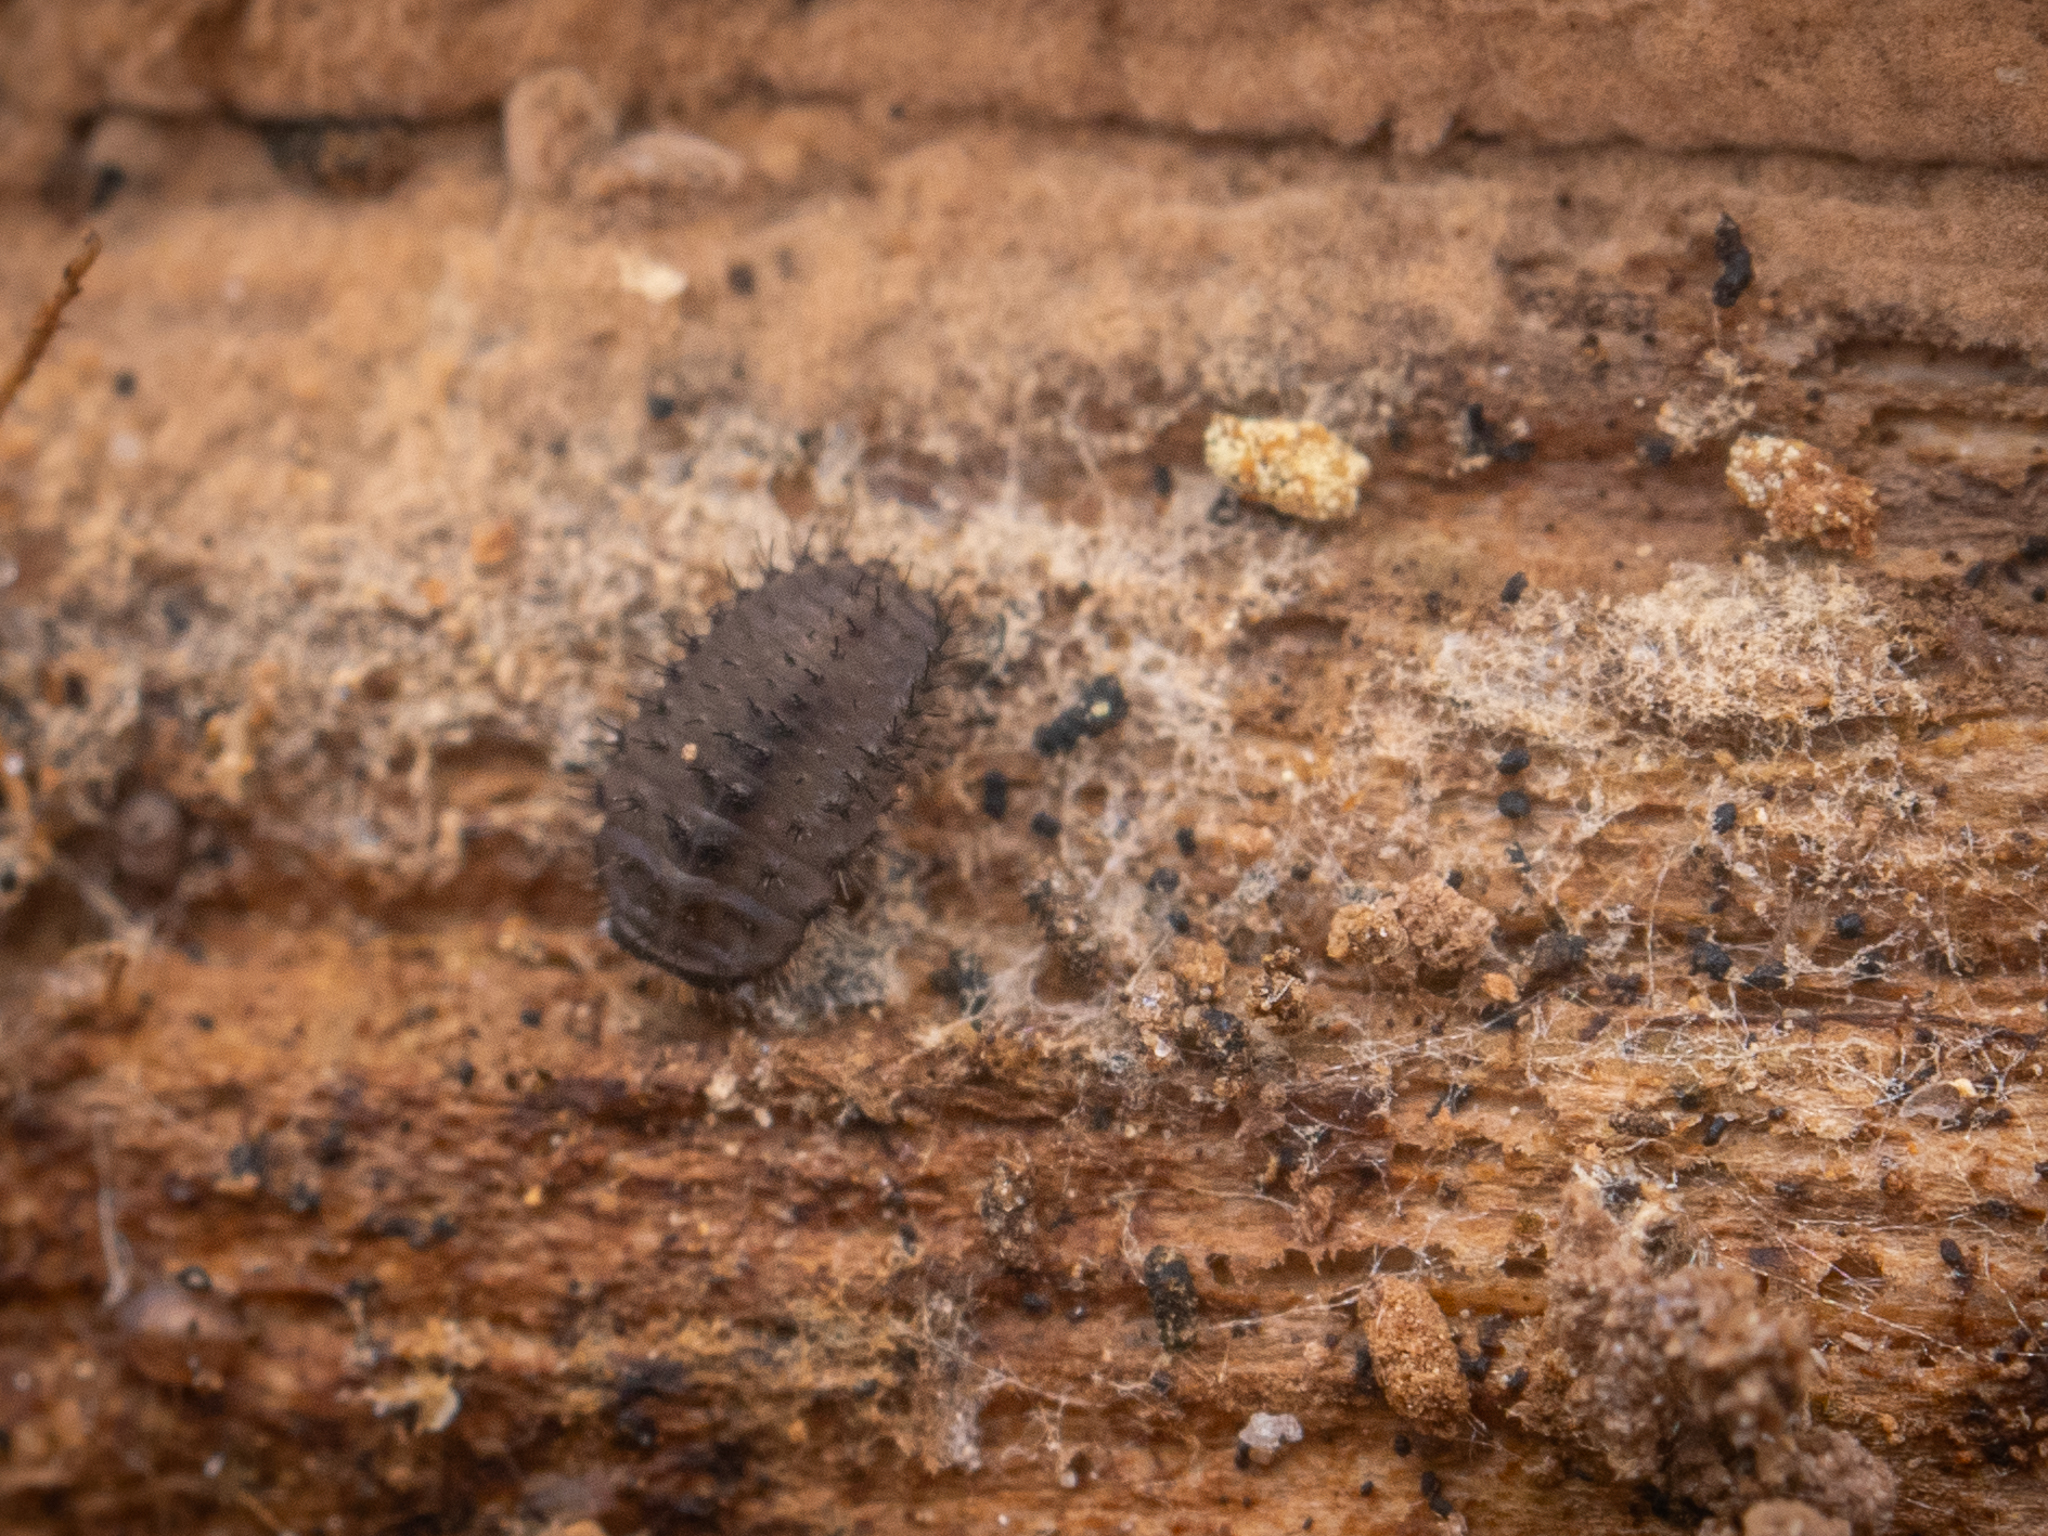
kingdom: Animalia
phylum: Arthropoda
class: Insecta
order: Coleoptera
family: Endomychidae
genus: Mycetina
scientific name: Mycetina cruciata
